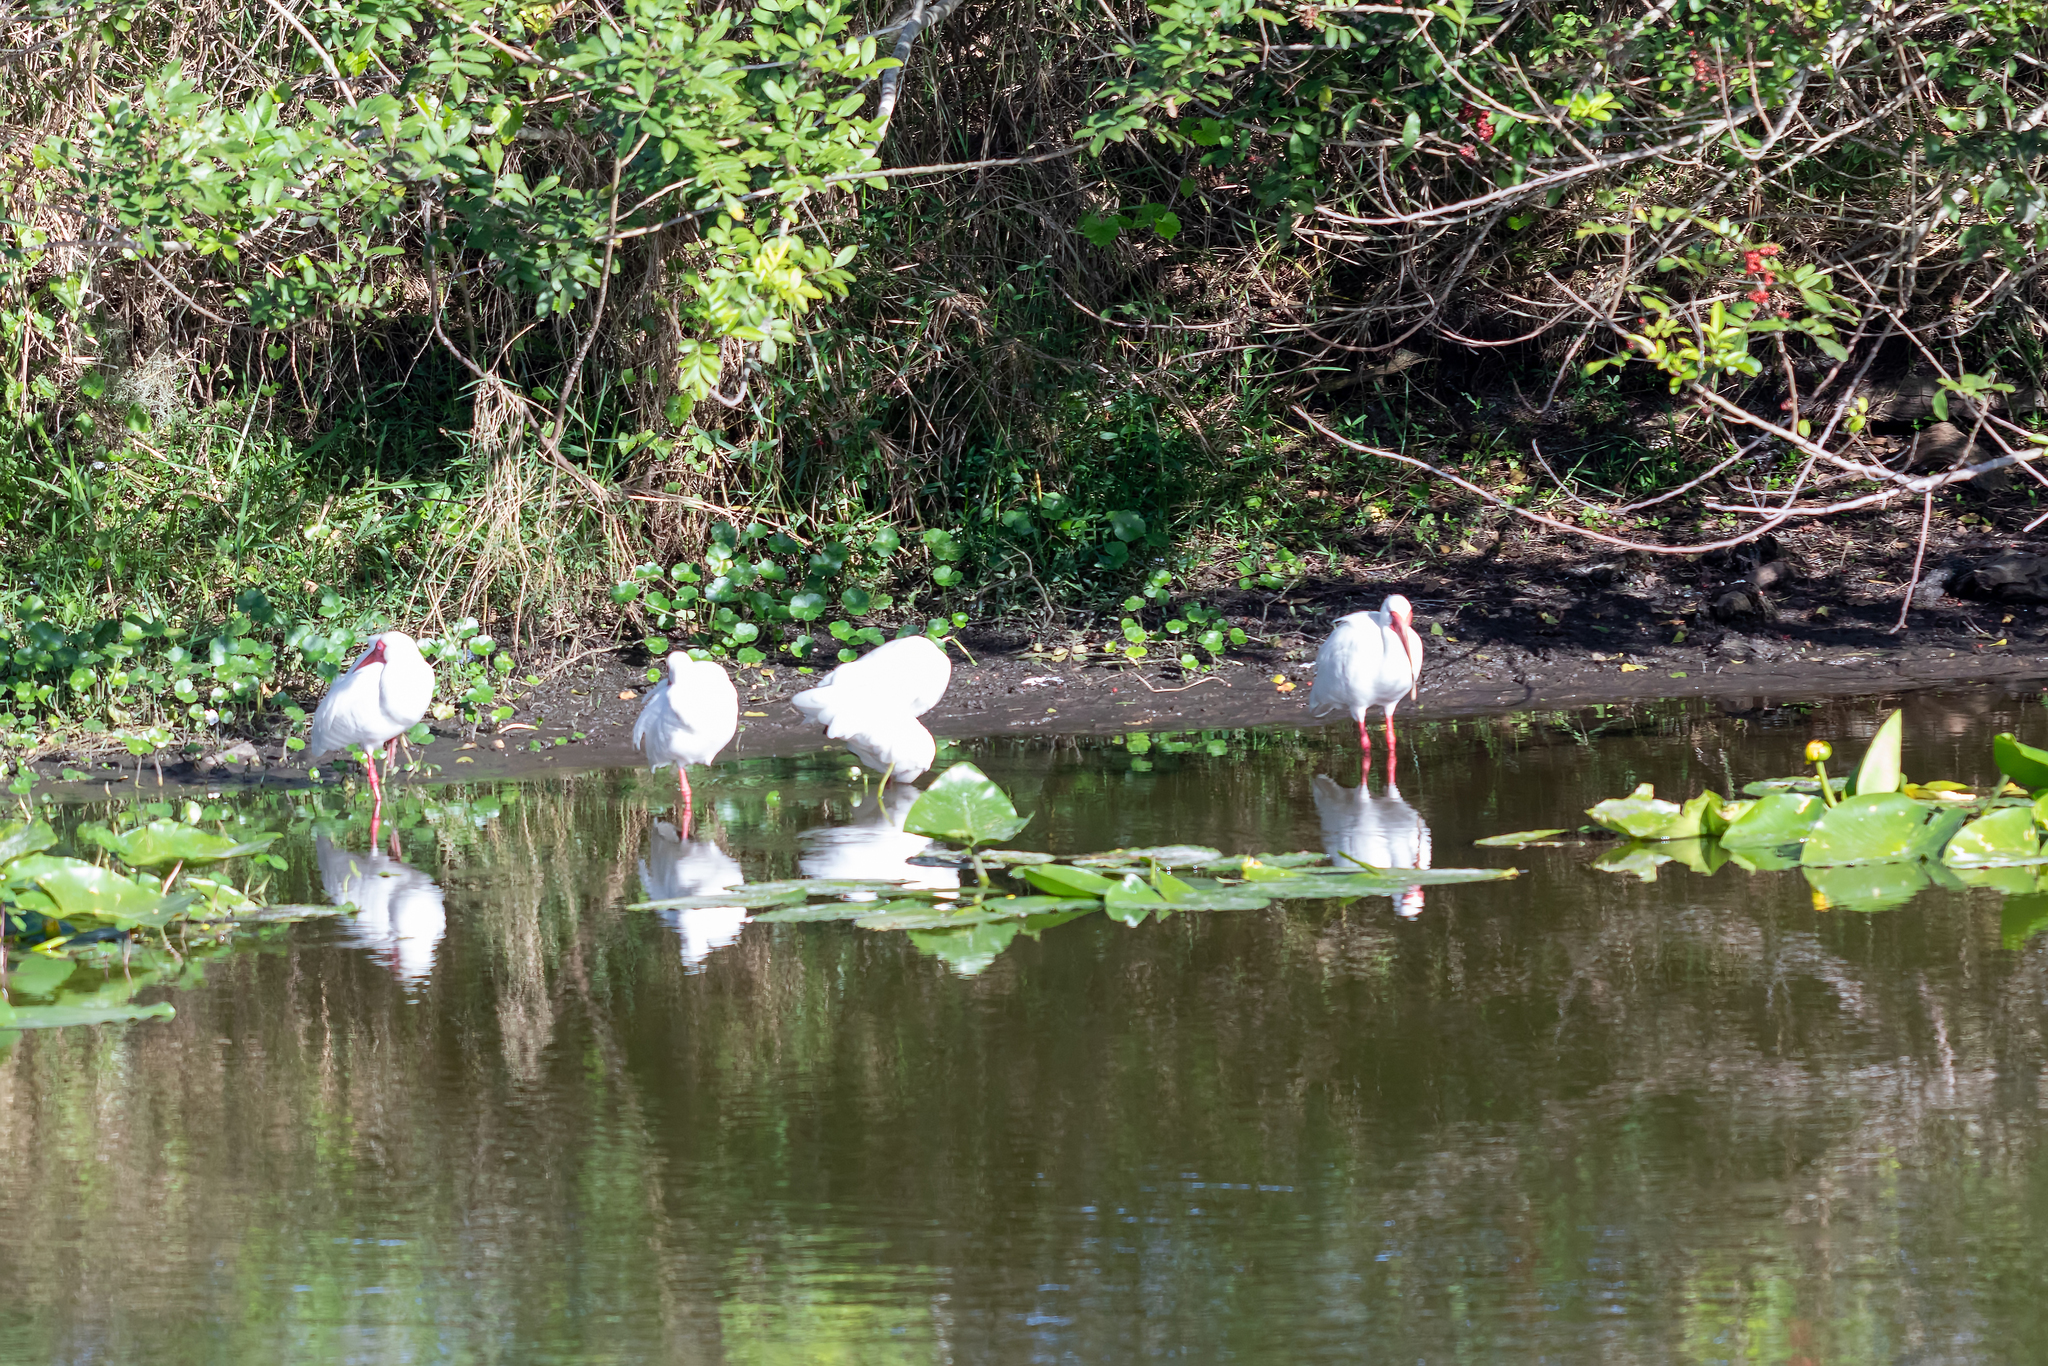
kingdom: Animalia
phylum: Chordata
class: Aves
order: Pelecaniformes
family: Threskiornithidae
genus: Eudocimus
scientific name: Eudocimus albus
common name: White ibis
